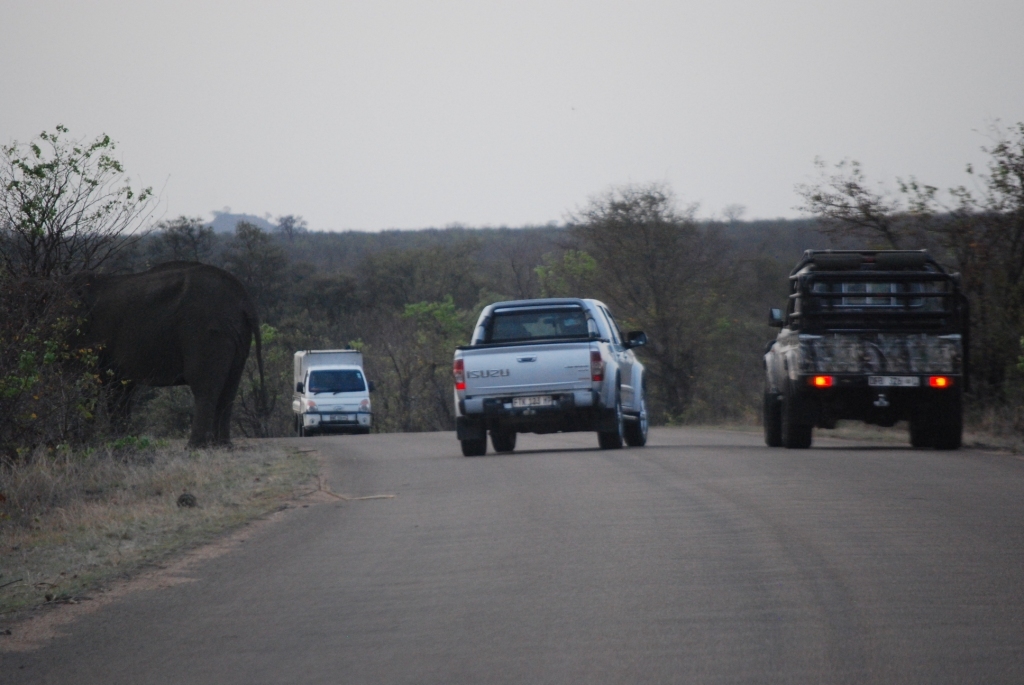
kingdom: Animalia
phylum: Chordata
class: Mammalia
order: Proboscidea
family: Elephantidae
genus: Loxodonta
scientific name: Loxodonta africana
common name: African elephant
